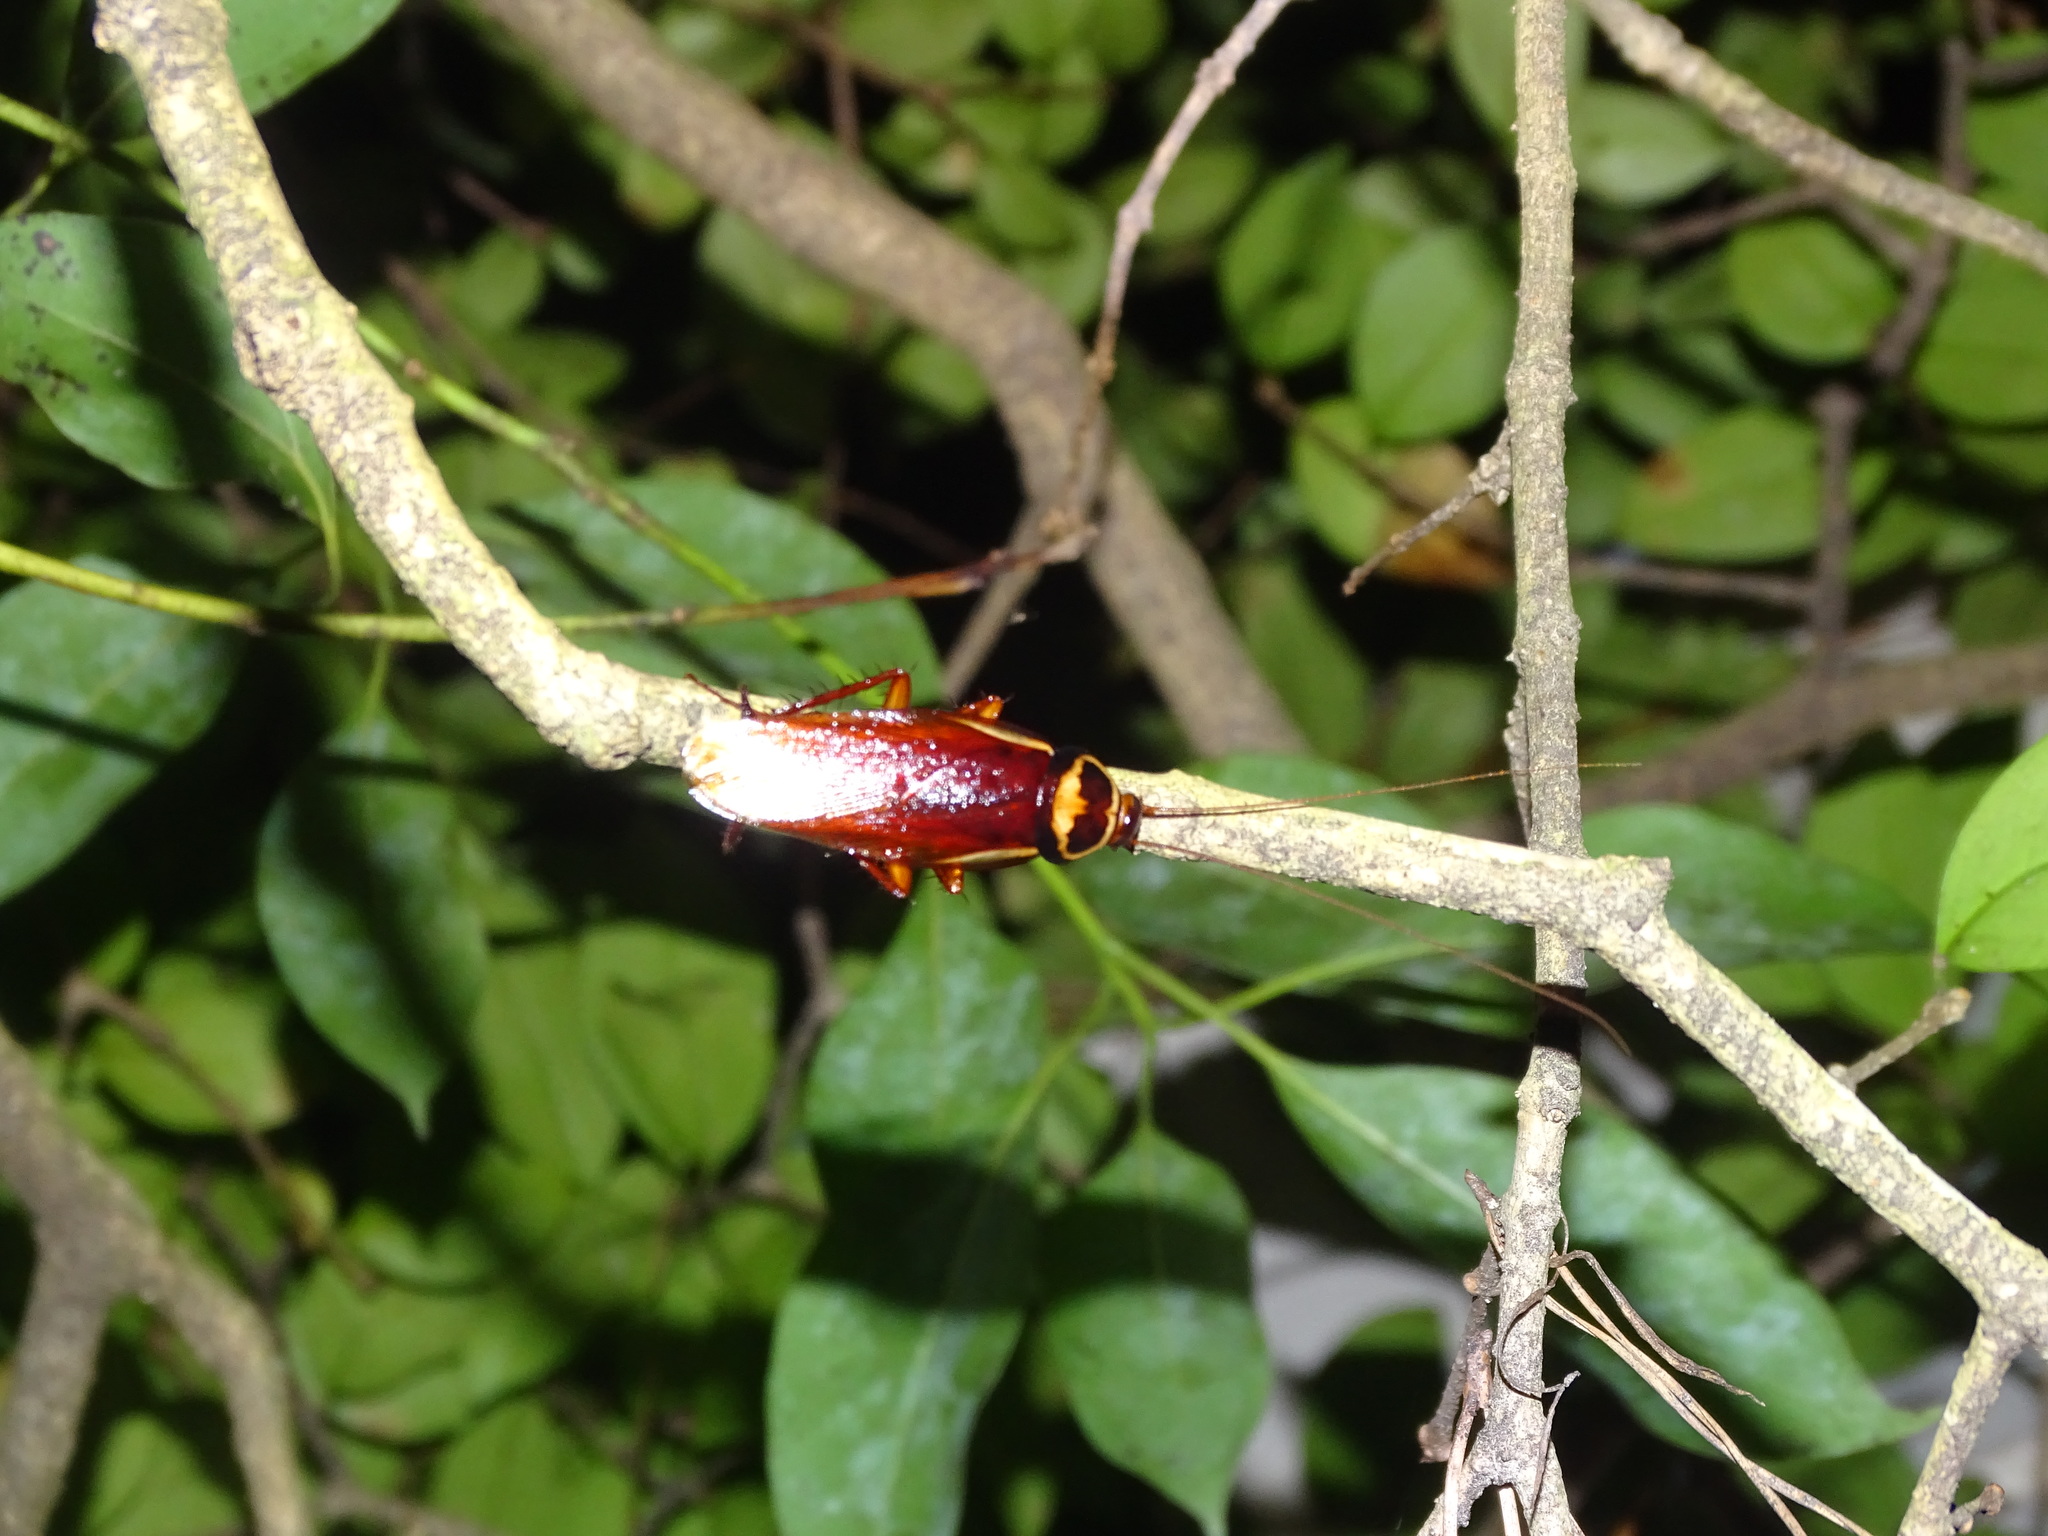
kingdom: Animalia
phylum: Arthropoda
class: Insecta
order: Blattodea
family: Blattidae
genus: Periplaneta
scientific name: Periplaneta australasiae
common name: Australian cockroach
